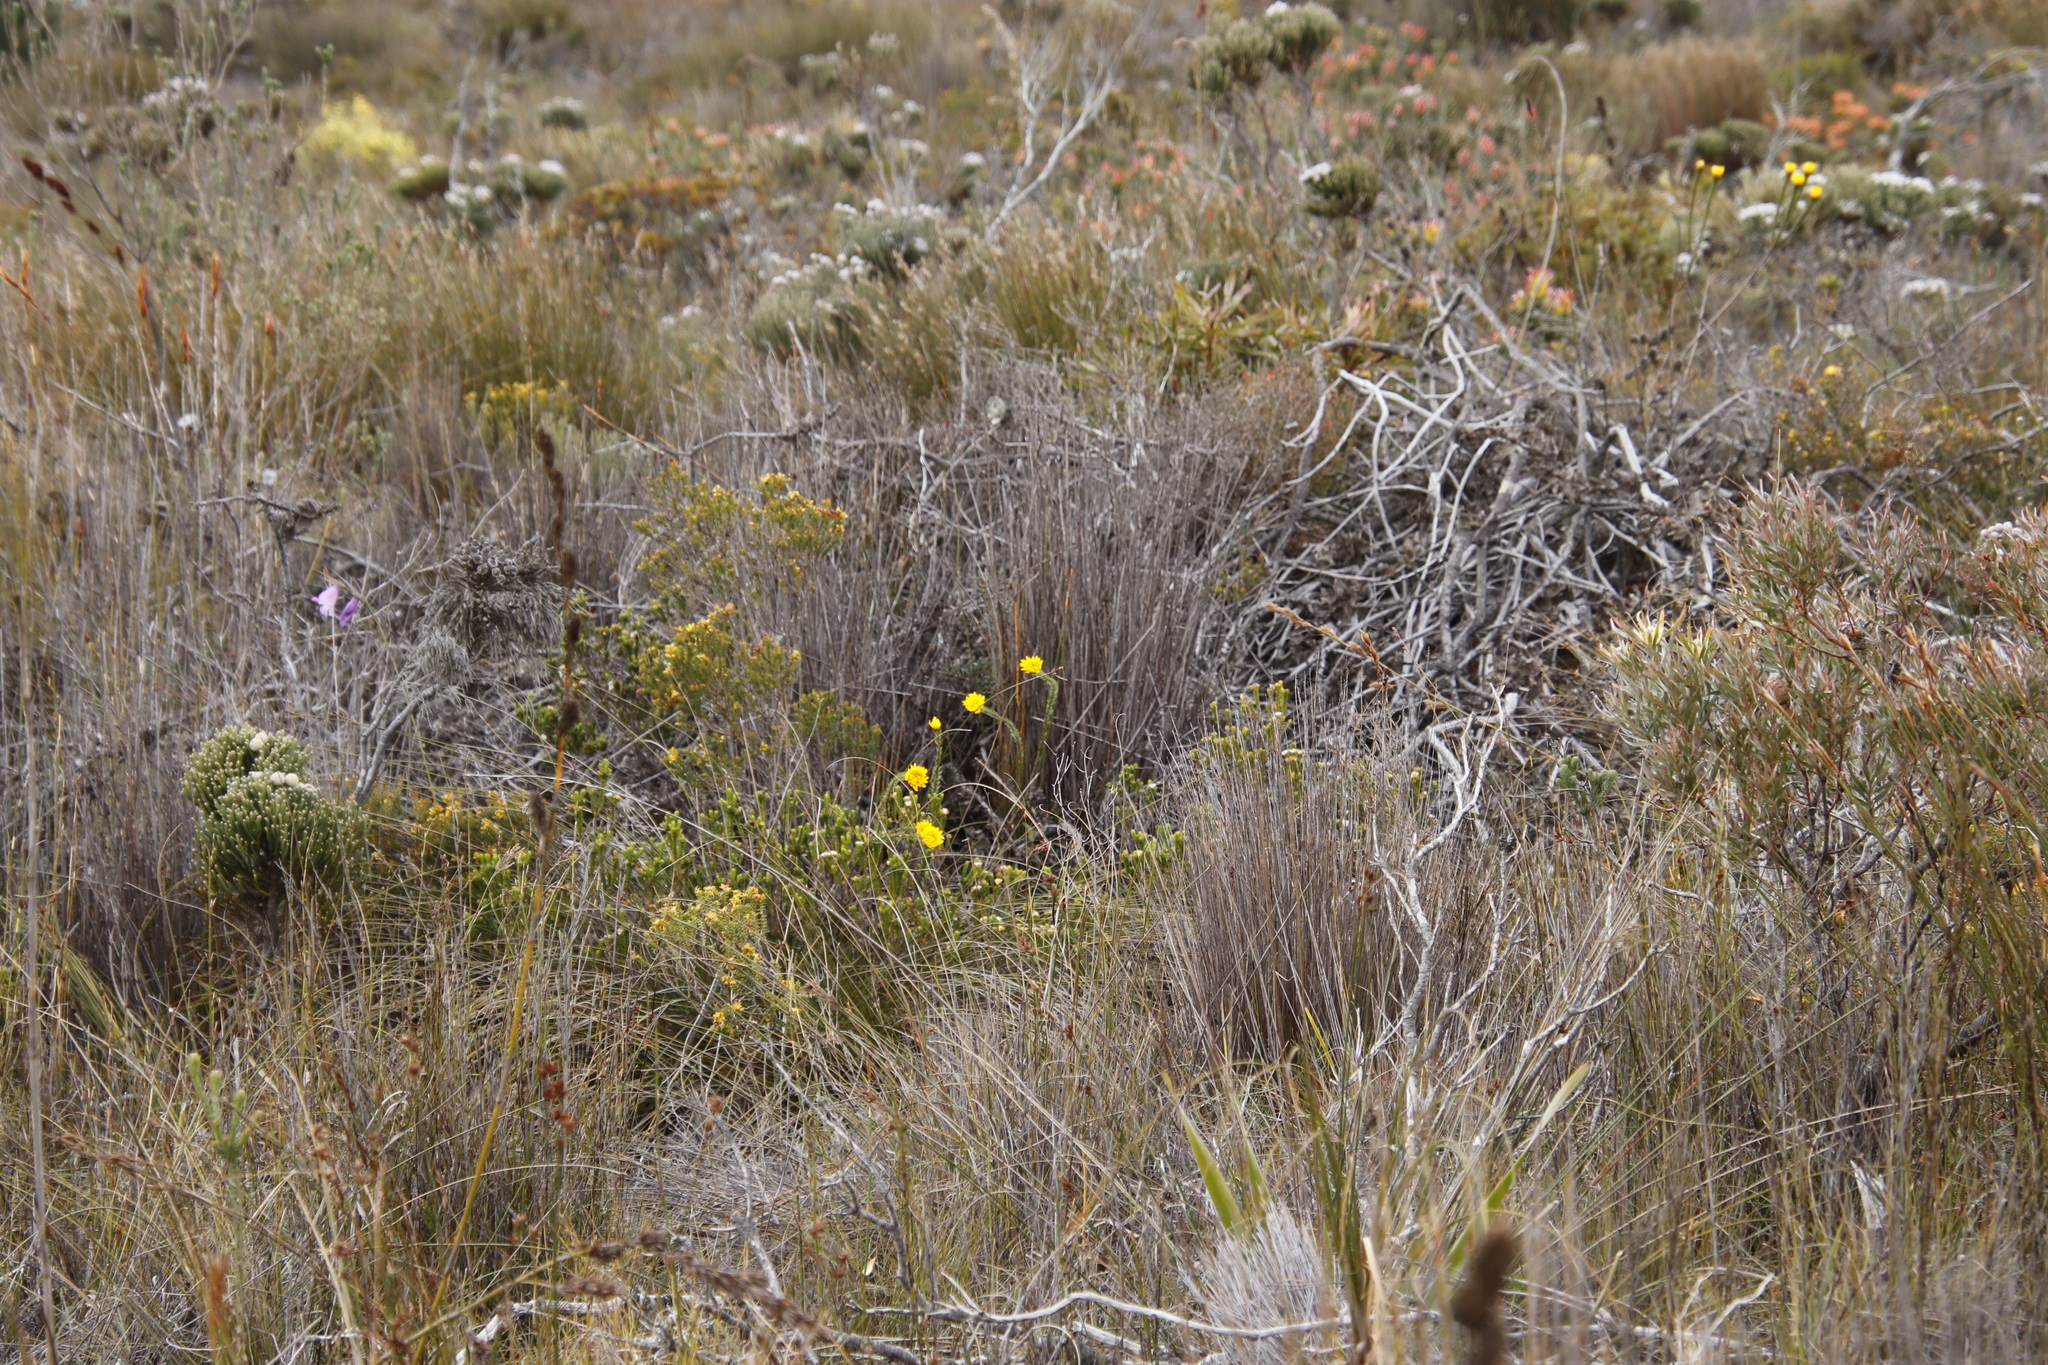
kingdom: Plantae
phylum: Tracheophyta
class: Magnoliopsida
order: Malvales
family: Thymelaeaceae
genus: Lachnaea
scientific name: Lachnaea aurea
